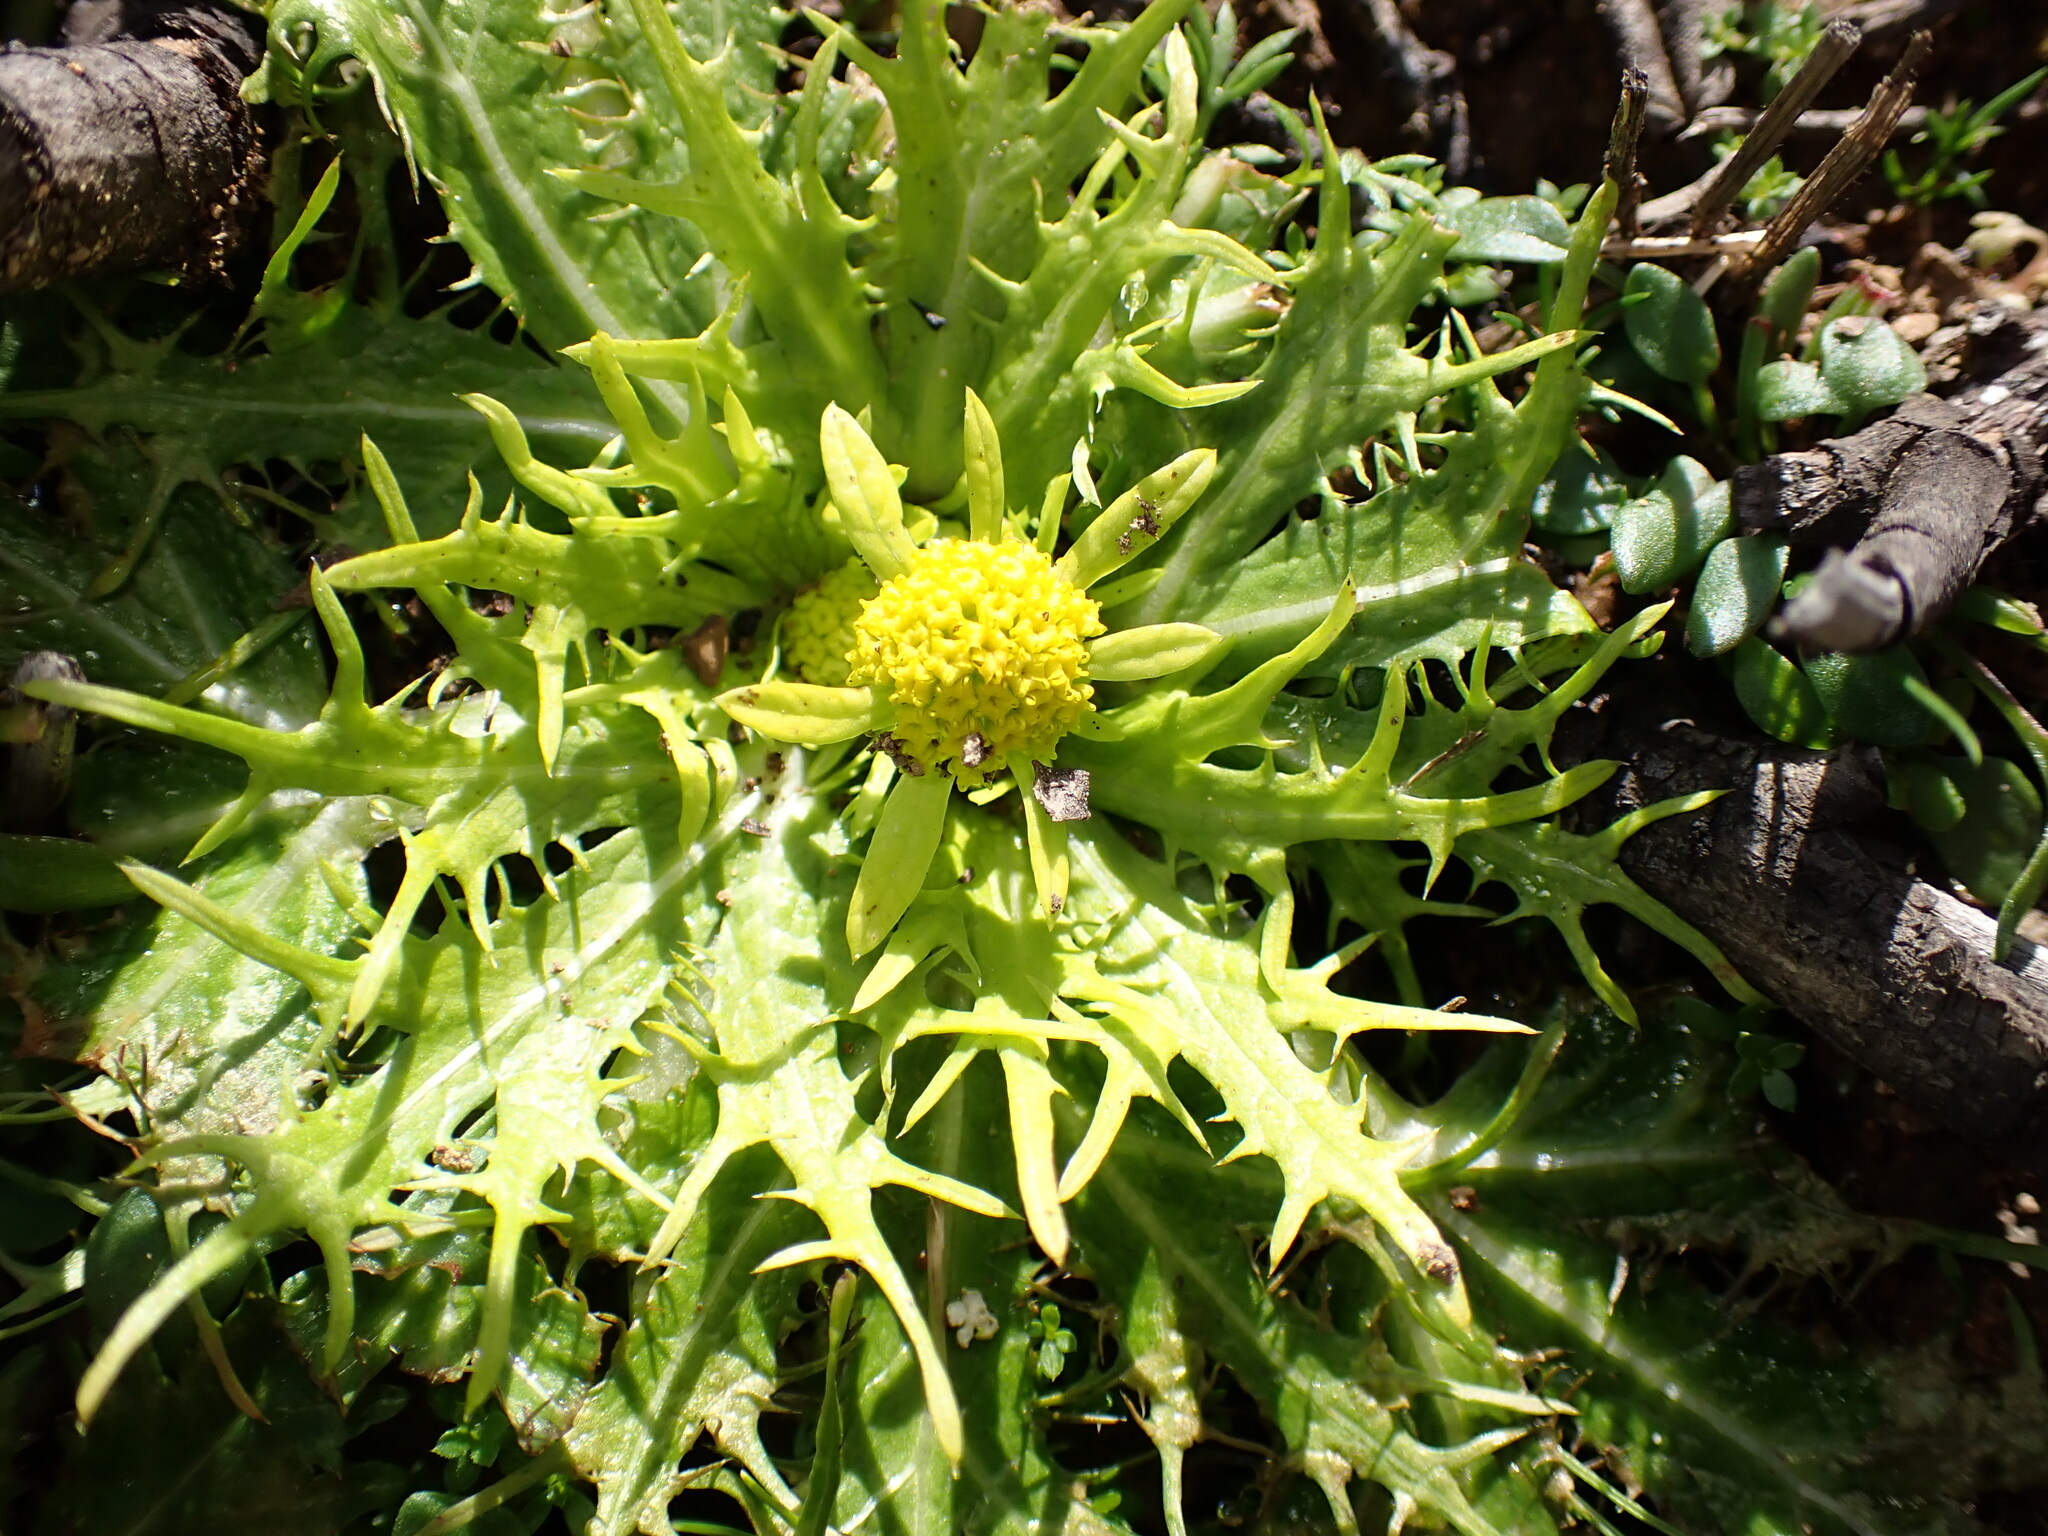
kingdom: Plantae
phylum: Tracheophyta
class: Magnoliopsida
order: Apiales
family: Apiaceae
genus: Sanicula
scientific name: Sanicula arctopoides
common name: Footsteps-of-spring
